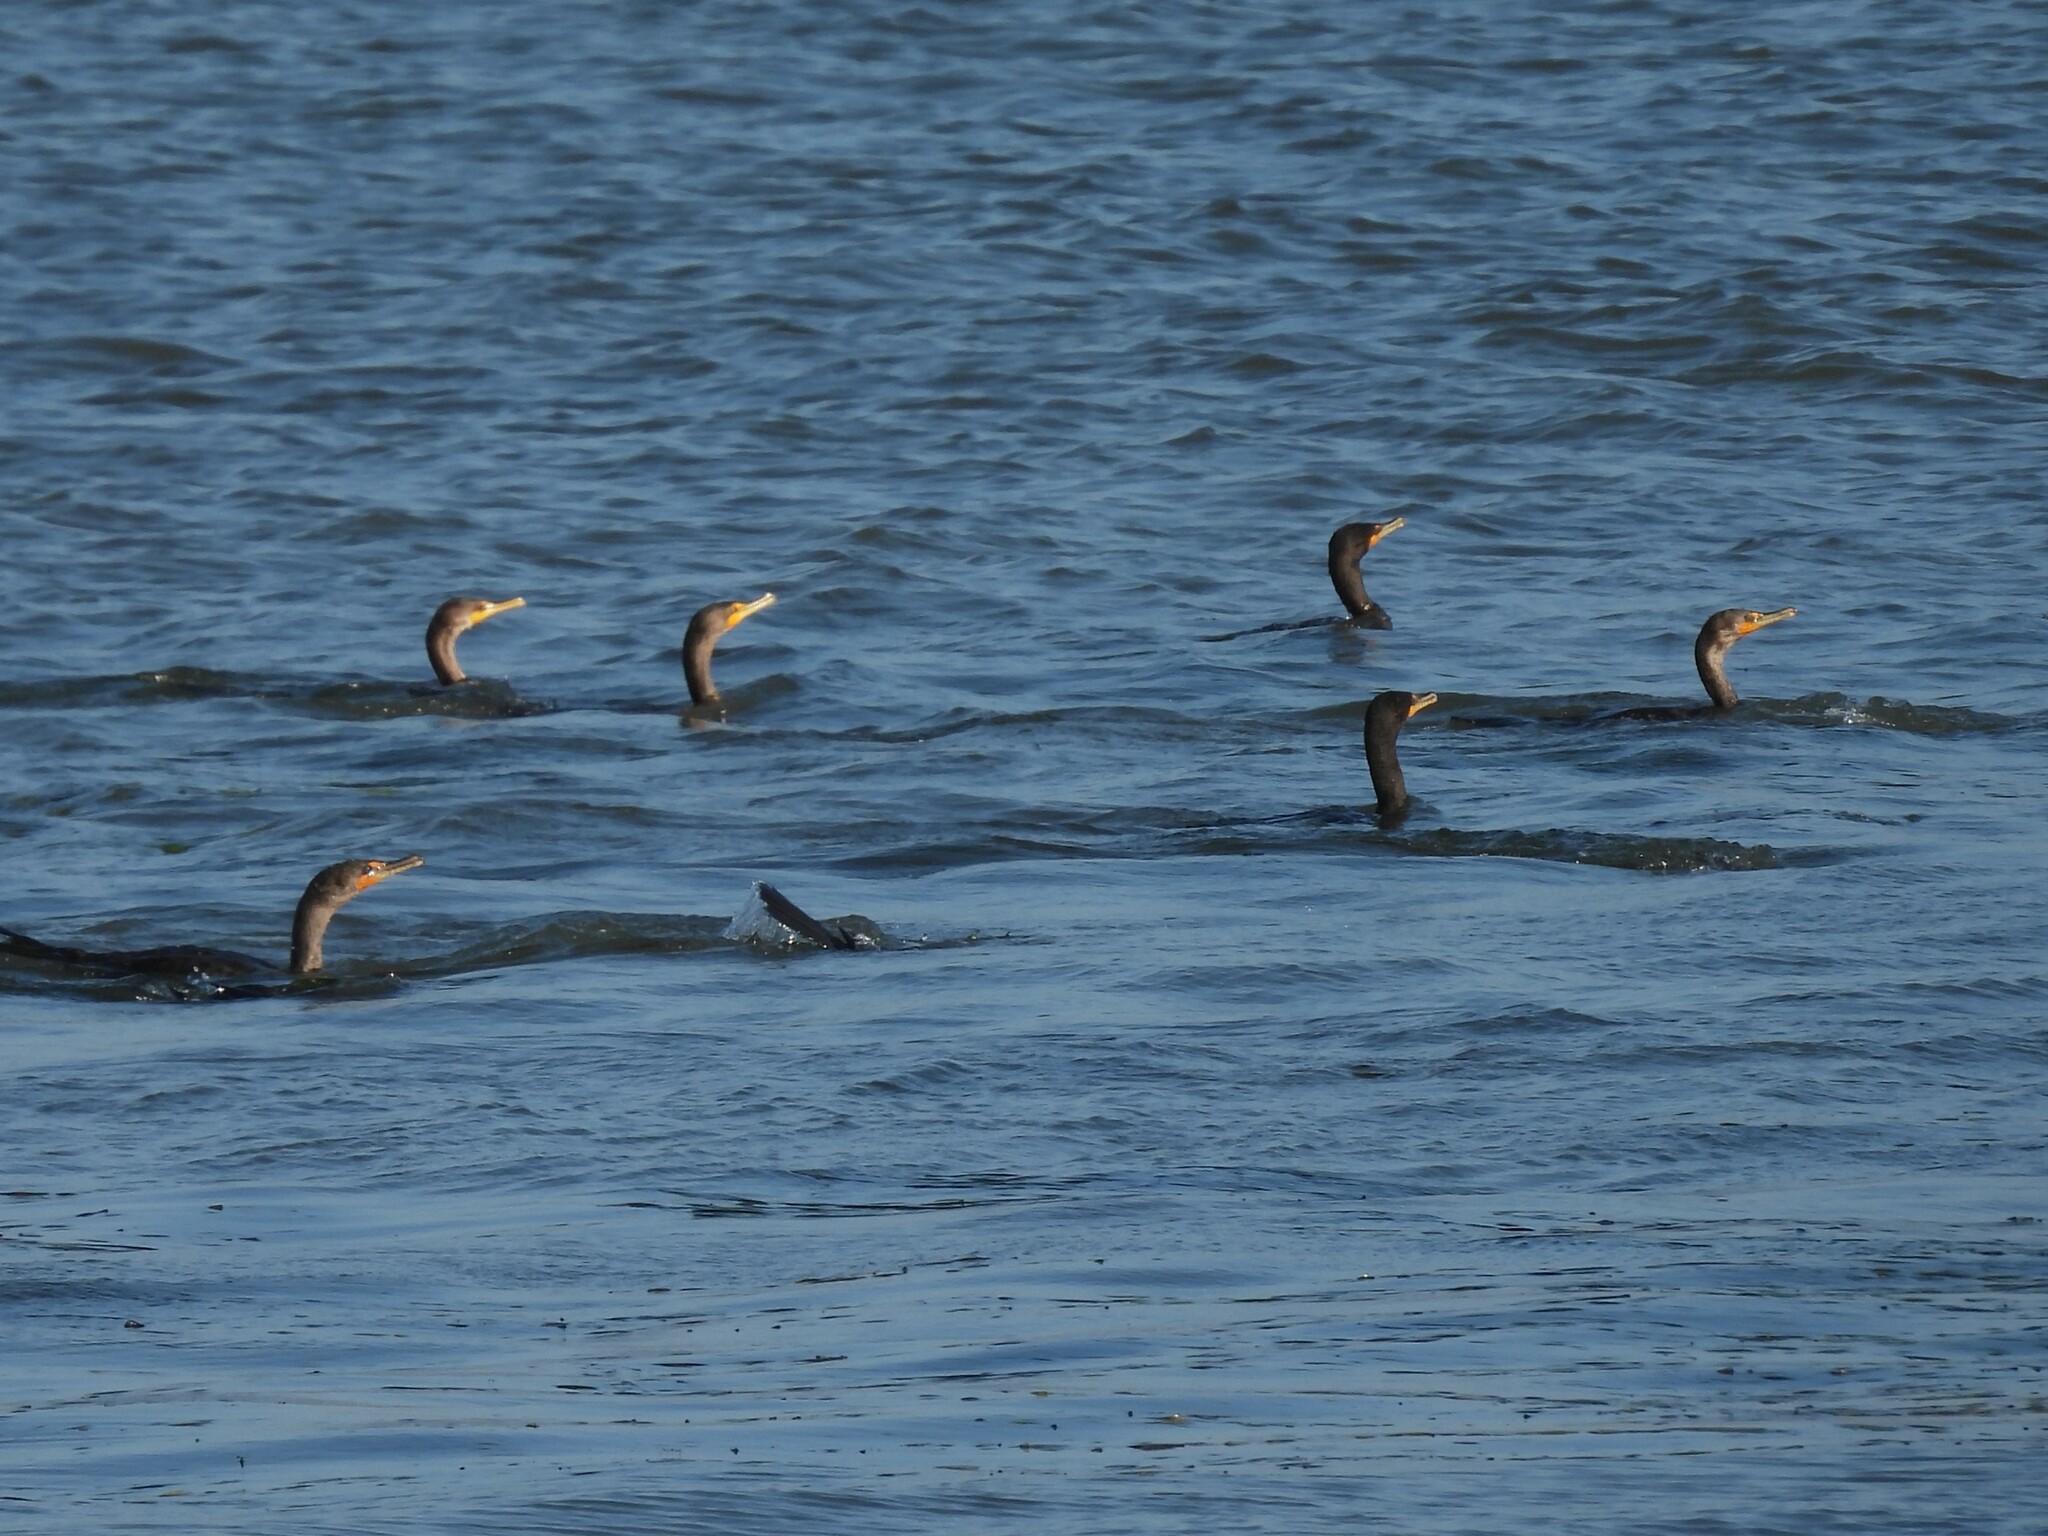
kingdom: Animalia
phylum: Chordata
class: Aves
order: Suliformes
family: Phalacrocoracidae
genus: Phalacrocorax
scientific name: Phalacrocorax auritus
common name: Double-crested cormorant
